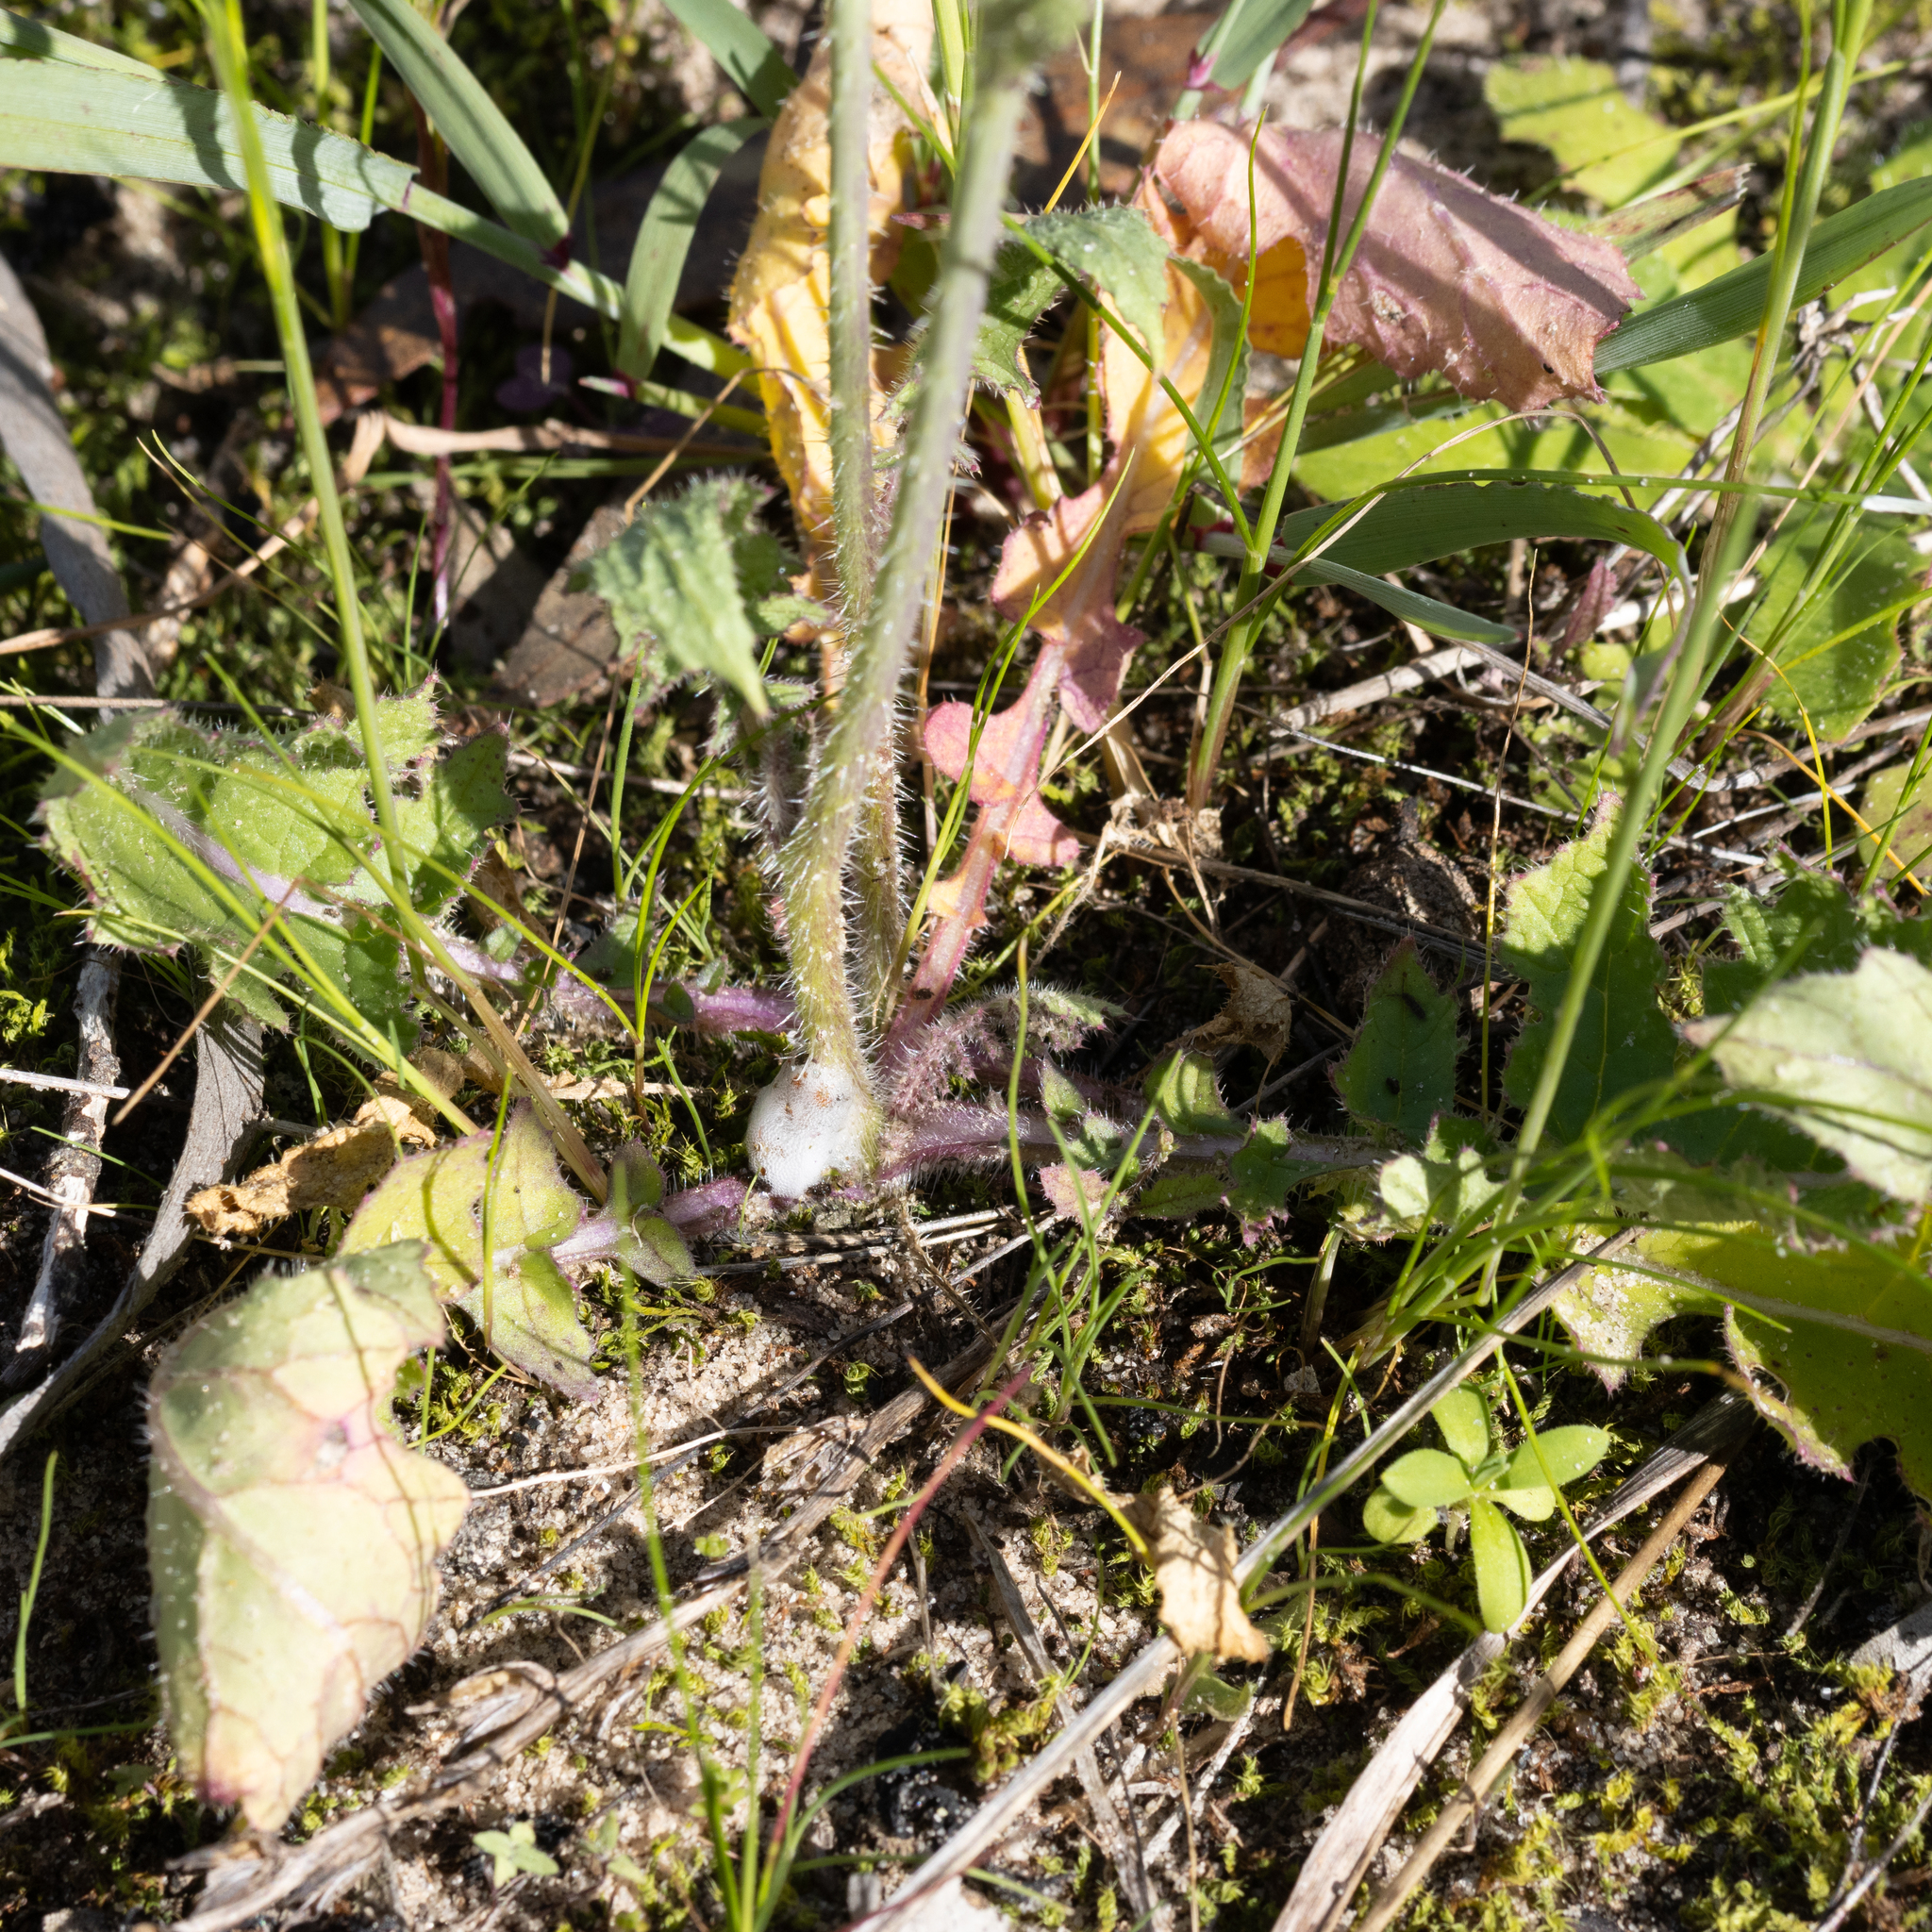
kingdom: Plantae
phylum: Tracheophyta
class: Magnoliopsida
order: Brassicales
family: Brassicaceae
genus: Brassica
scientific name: Brassica tournefortii
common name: Pale cabbage
